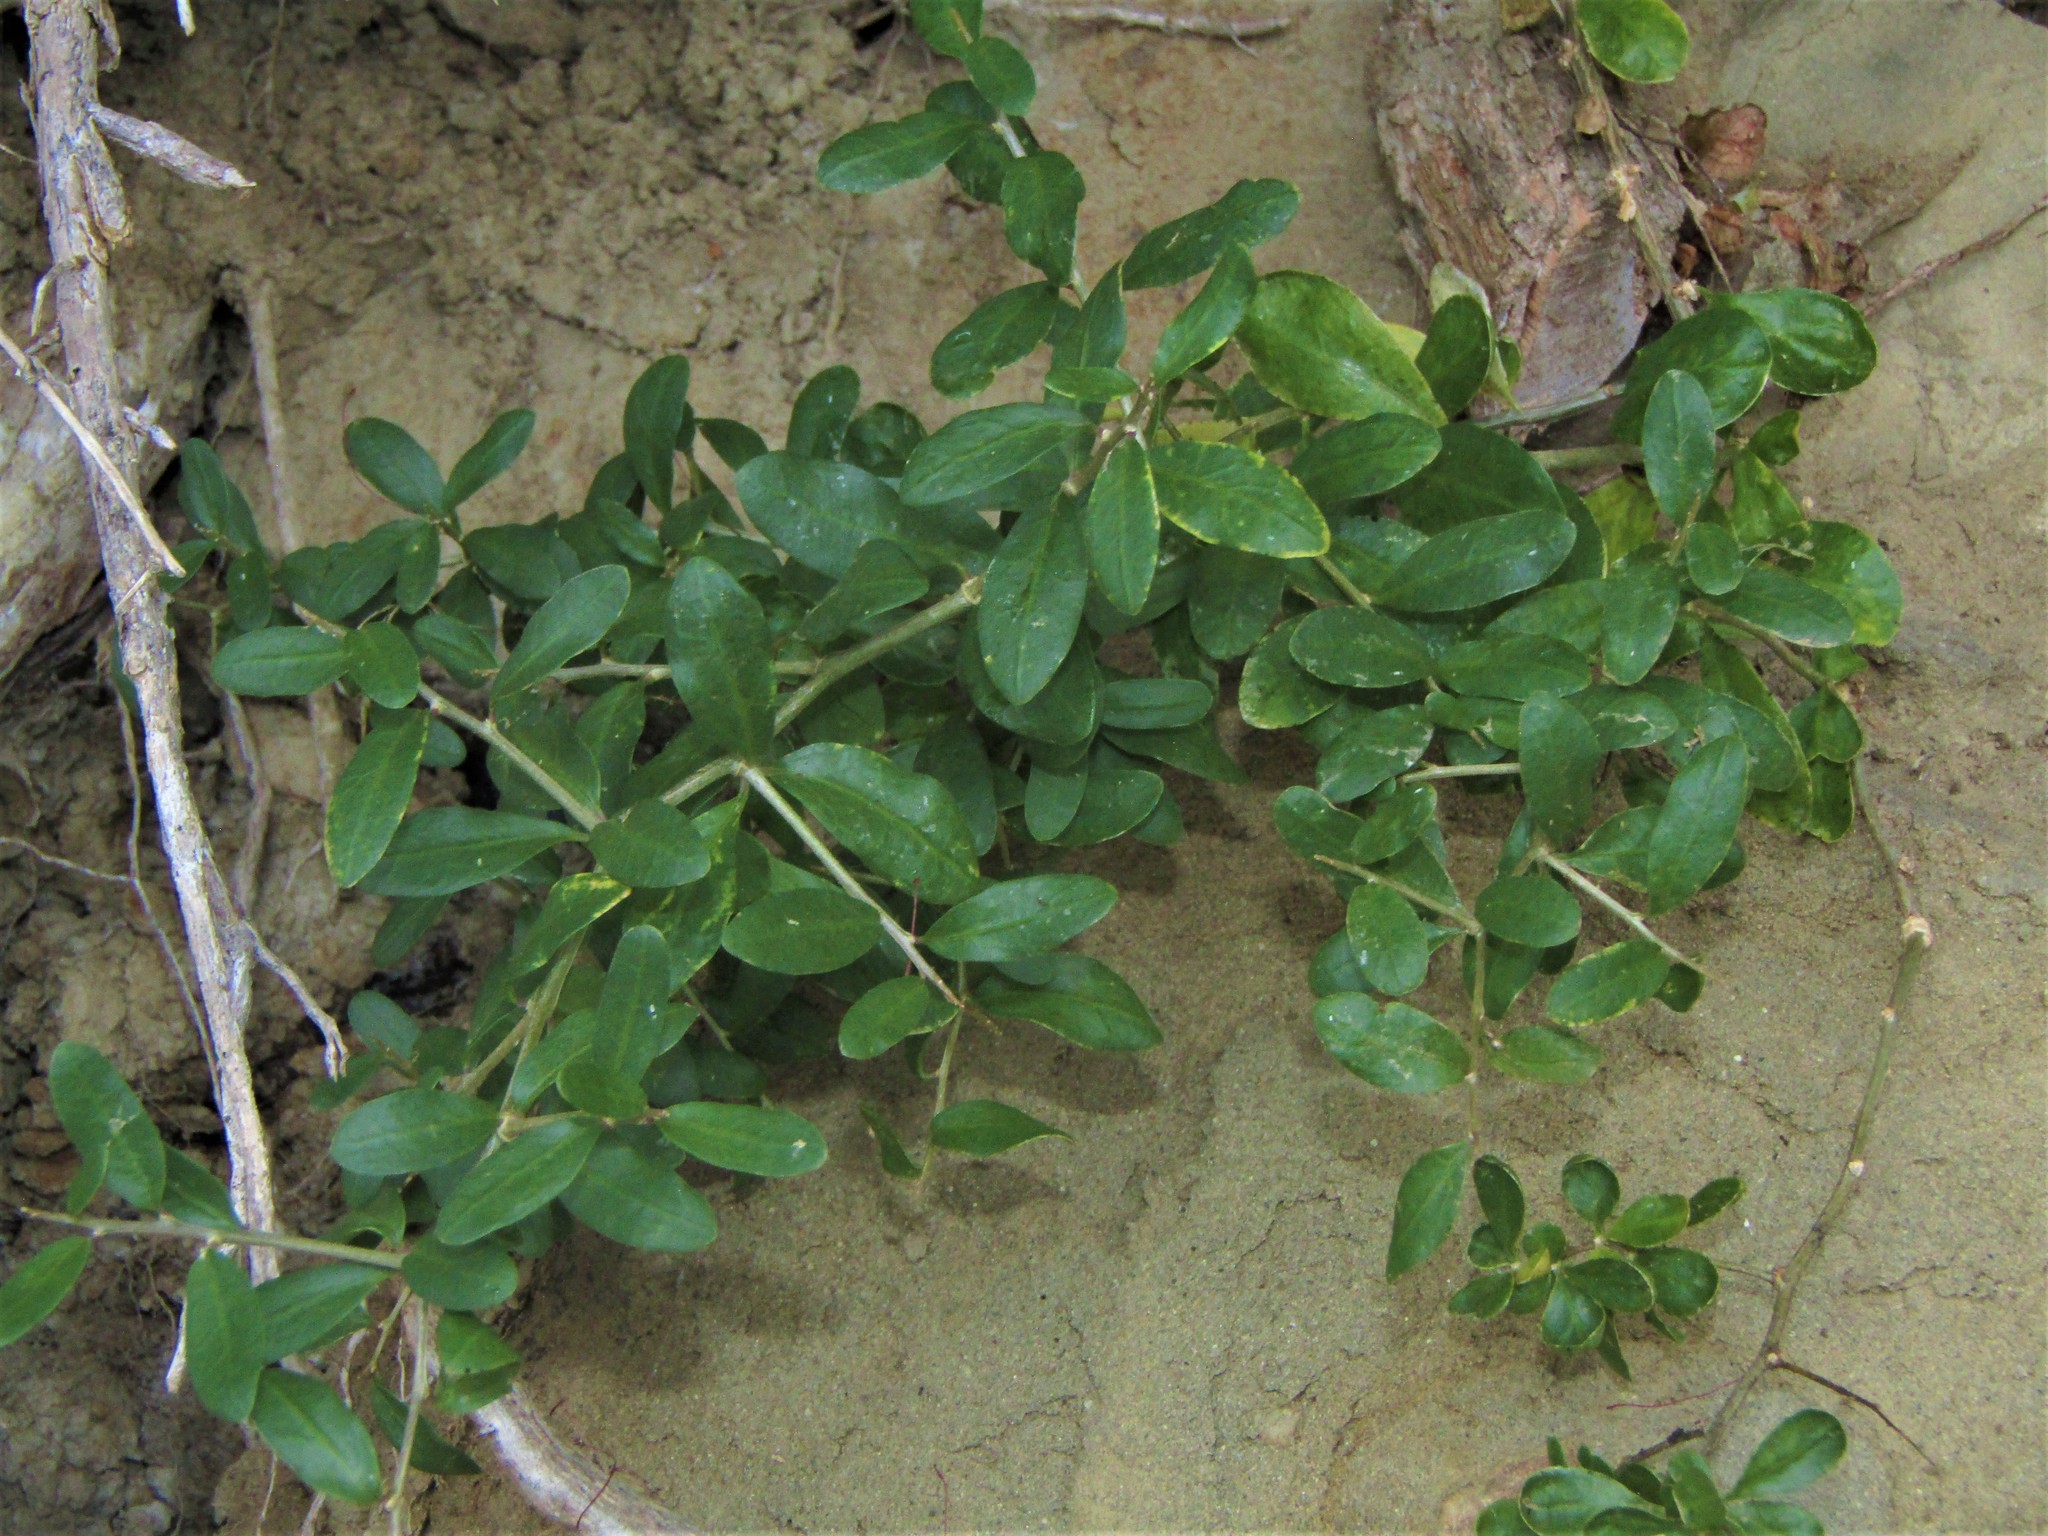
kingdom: Plantae
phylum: Tracheophyta
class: Magnoliopsida
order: Solanales
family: Solanaceae
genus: Lycium
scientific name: Lycium ferocissimum
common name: African boxthorn
